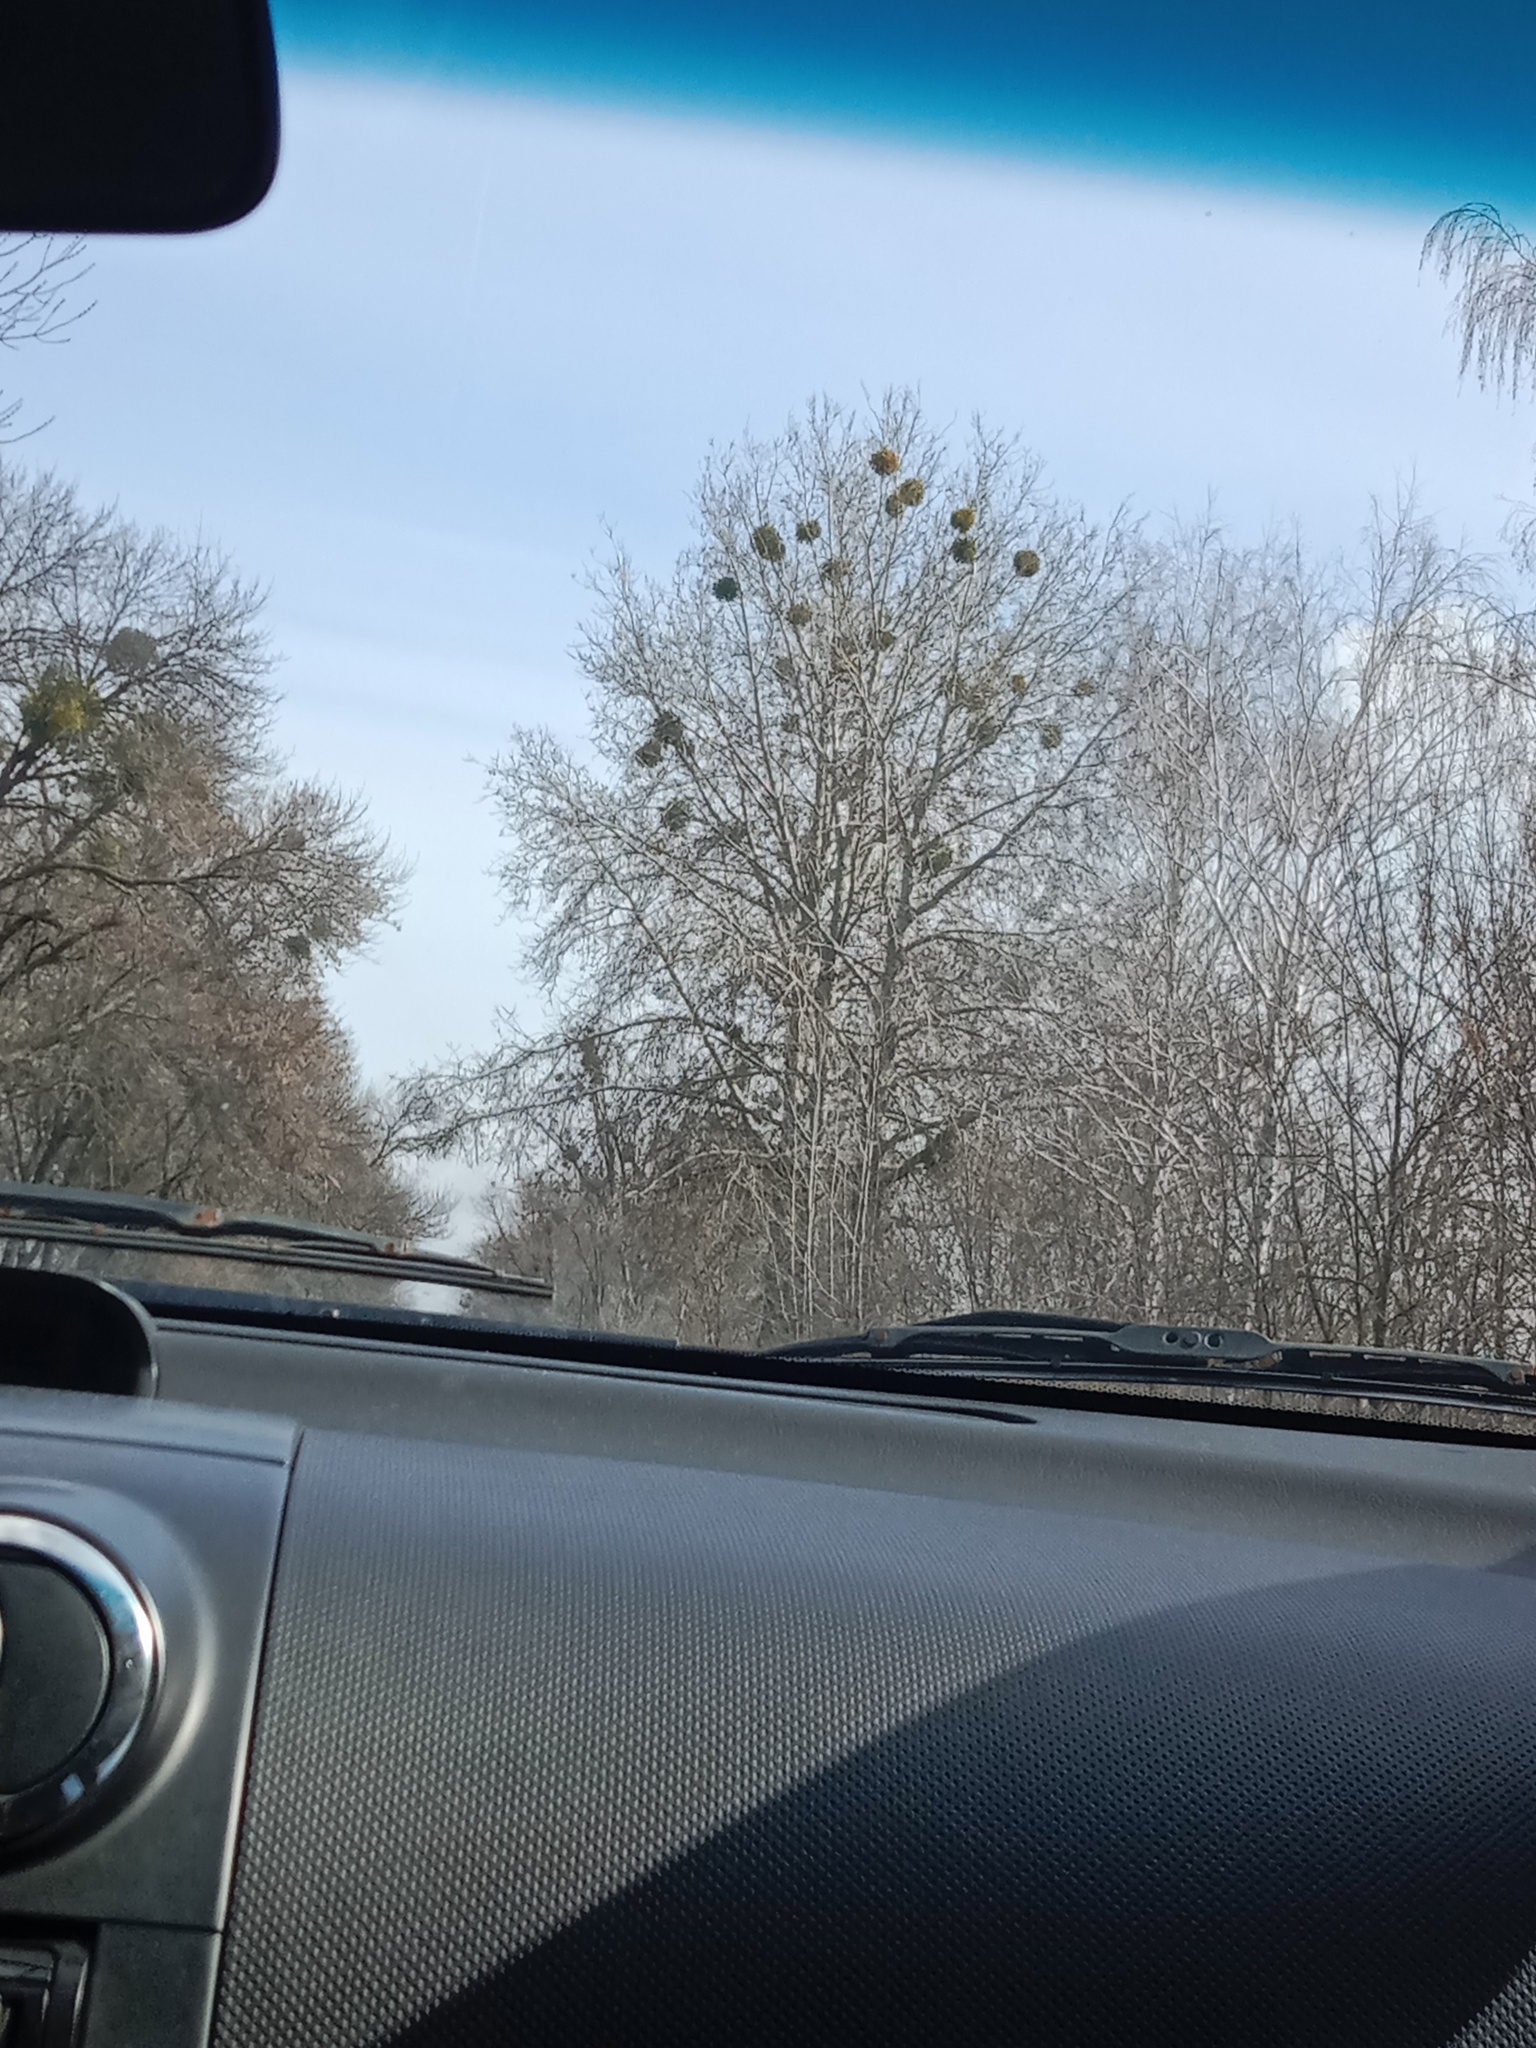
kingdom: Plantae
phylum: Tracheophyta
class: Magnoliopsida
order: Santalales
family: Viscaceae
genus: Viscum
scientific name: Viscum album
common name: Mistletoe
